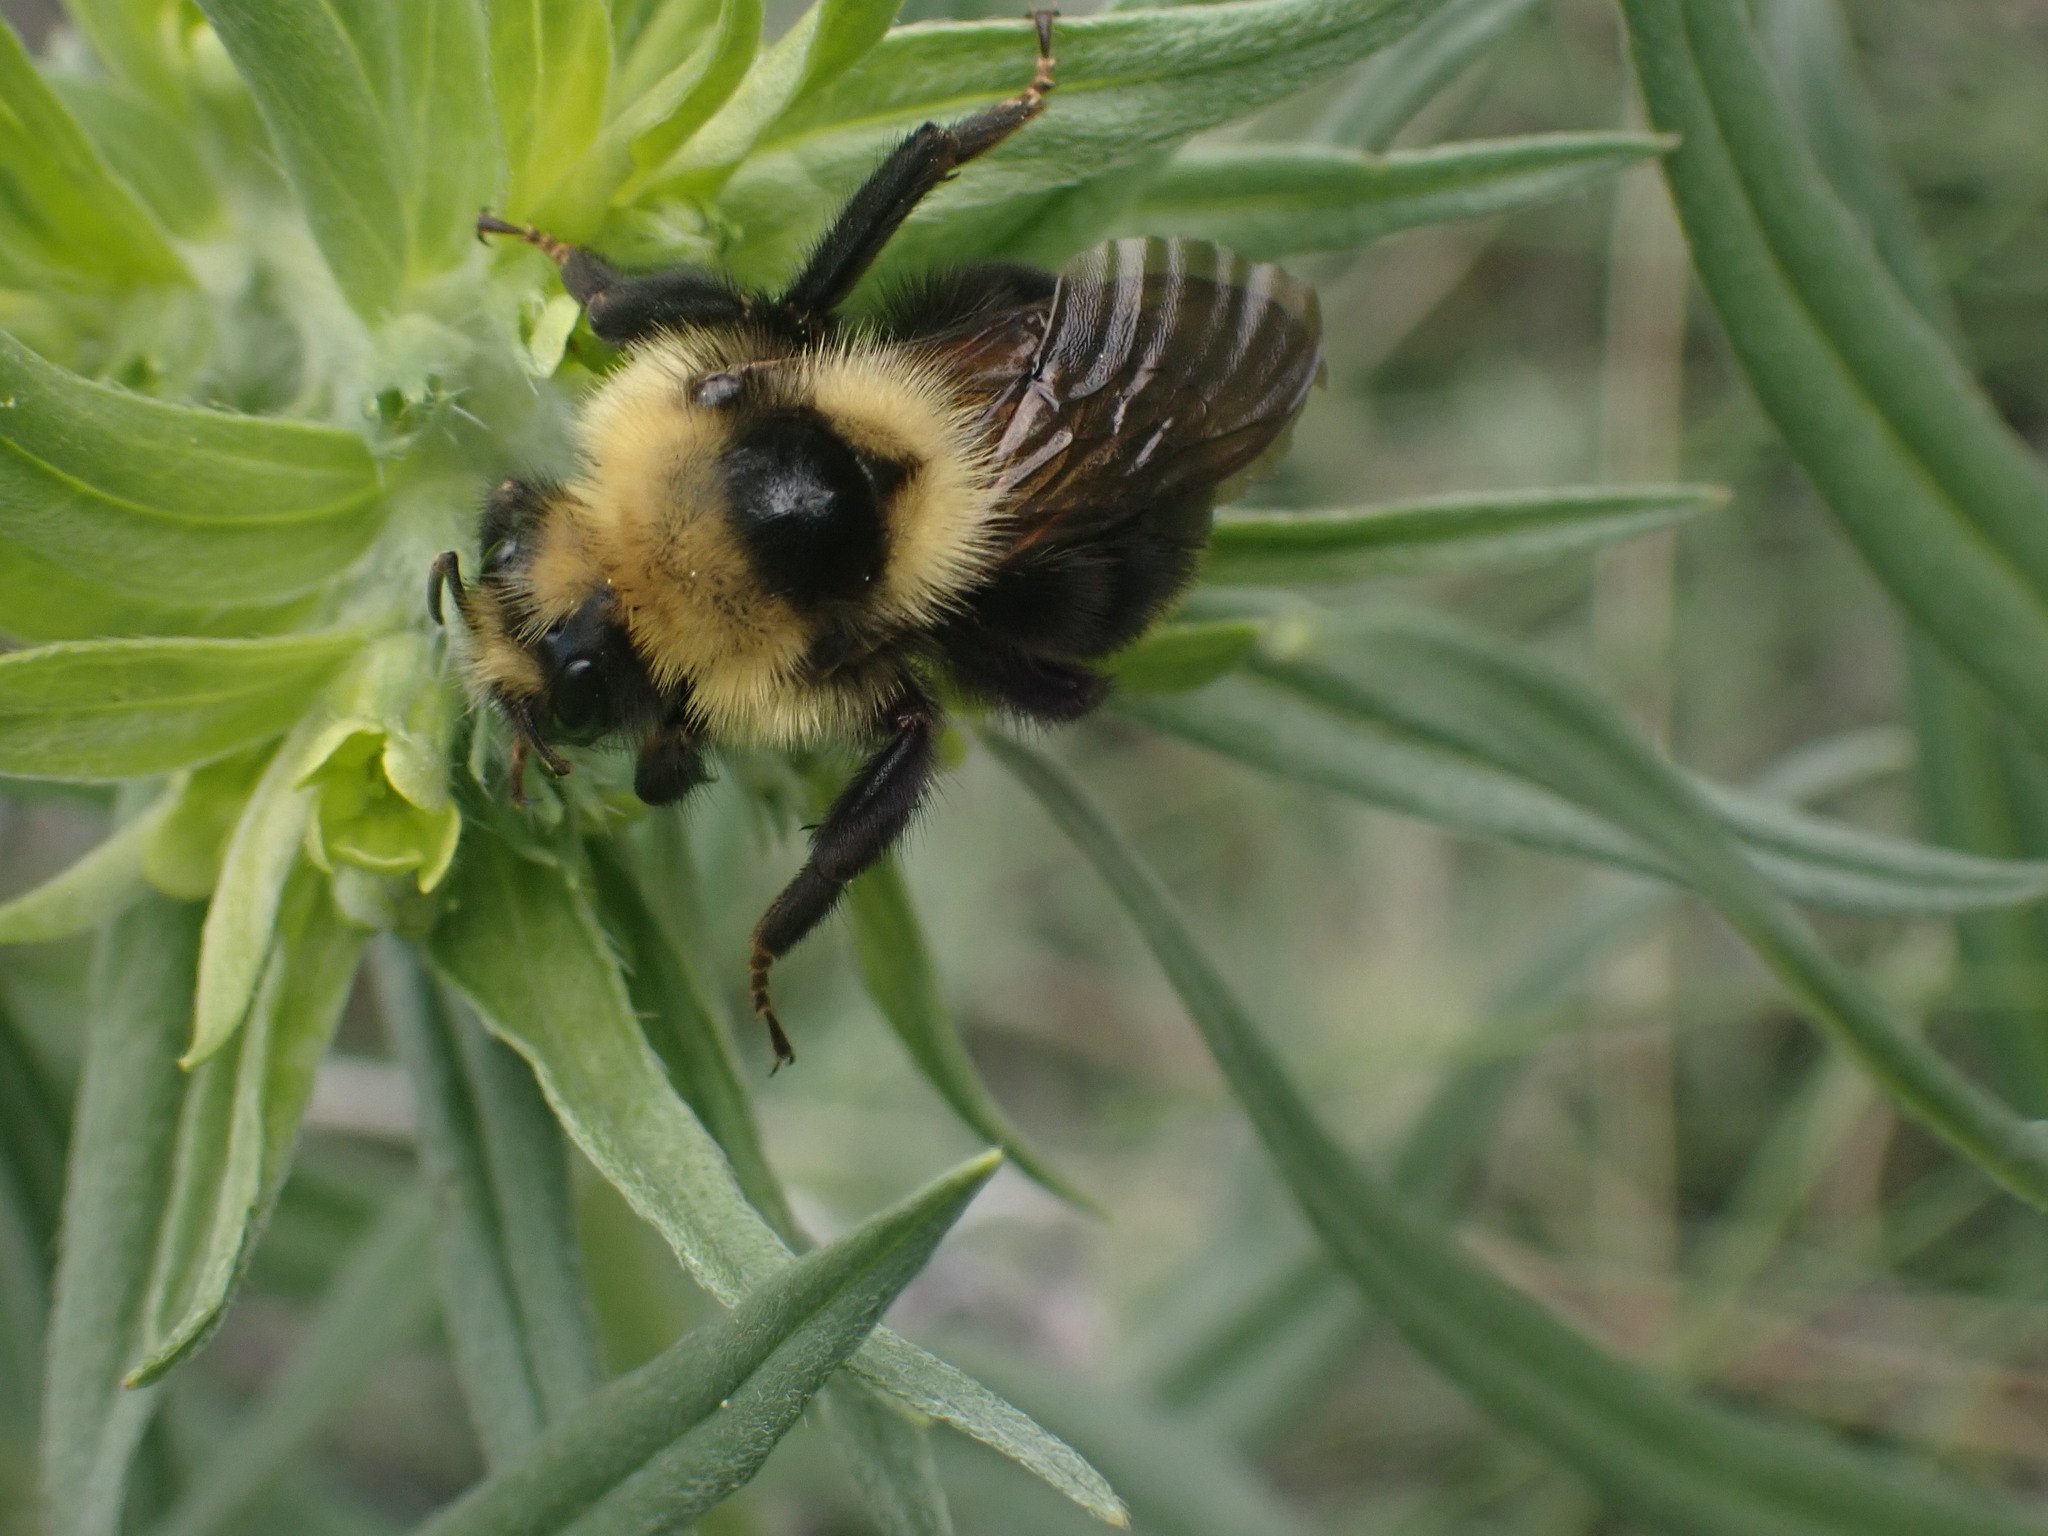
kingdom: Animalia
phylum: Arthropoda
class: Insecta
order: Hymenoptera
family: Apidae
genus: Bombus
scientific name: Bombus insularis
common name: Indiscriminate cuckoo bumble bee
